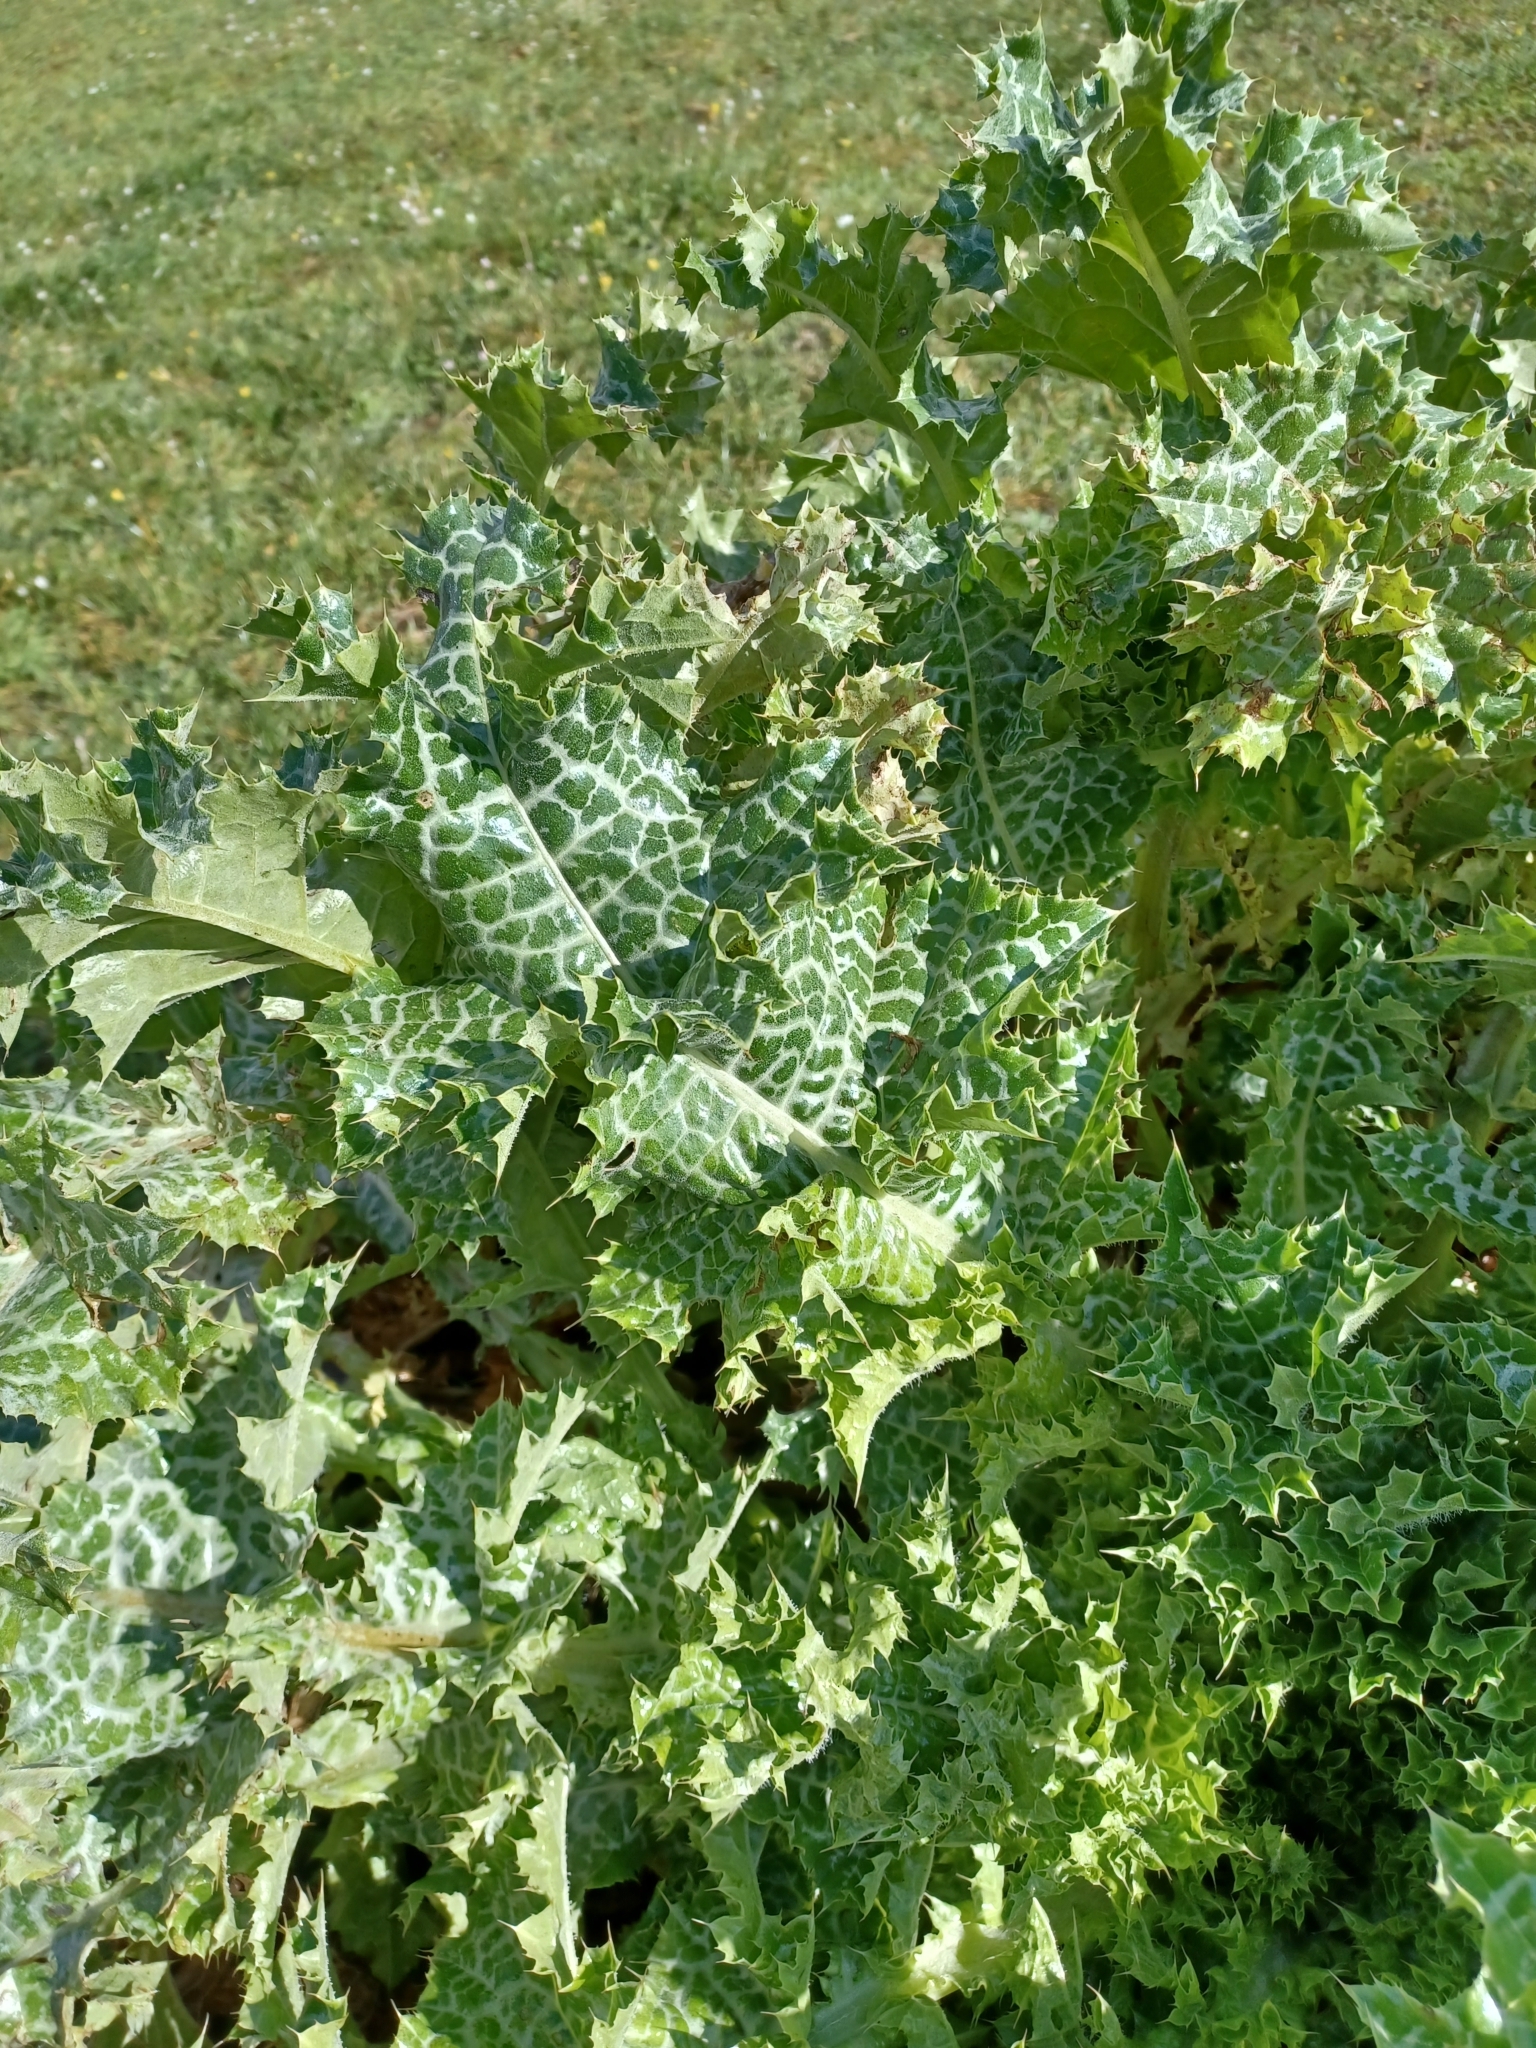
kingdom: Plantae
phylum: Tracheophyta
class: Magnoliopsida
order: Asterales
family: Asteraceae
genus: Silybum
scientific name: Silybum marianum
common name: Milk thistle
